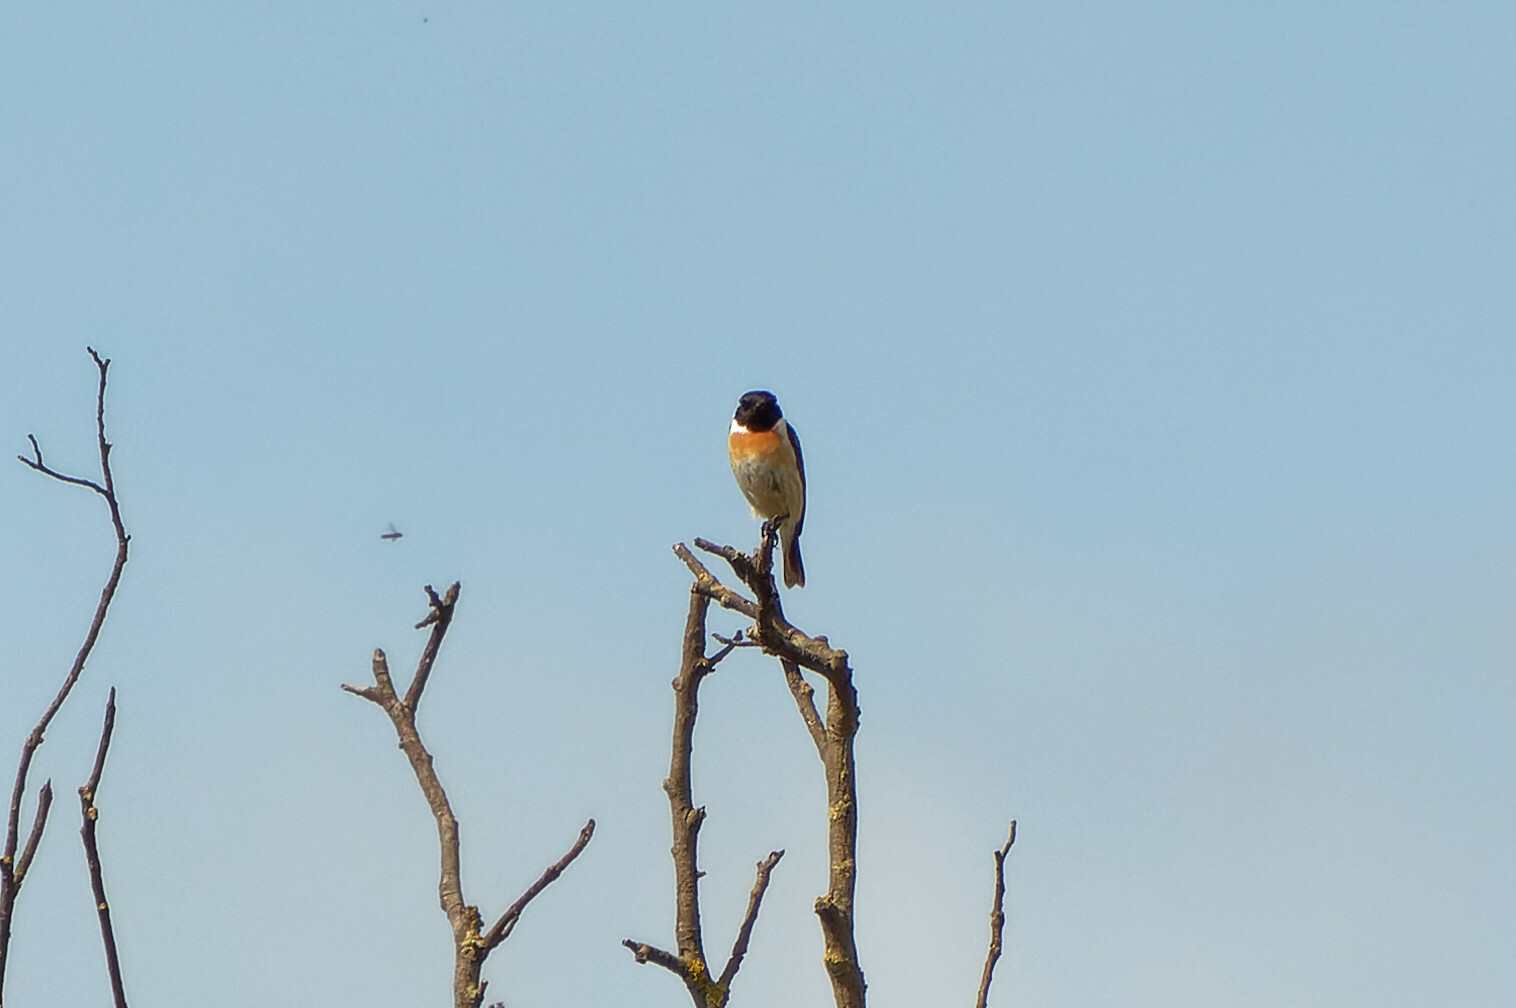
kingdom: Animalia
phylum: Chordata
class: Aves
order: Passeriformes
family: Muscicapidae
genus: Saxicola
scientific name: Saxicola rubicola
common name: European stonechat
